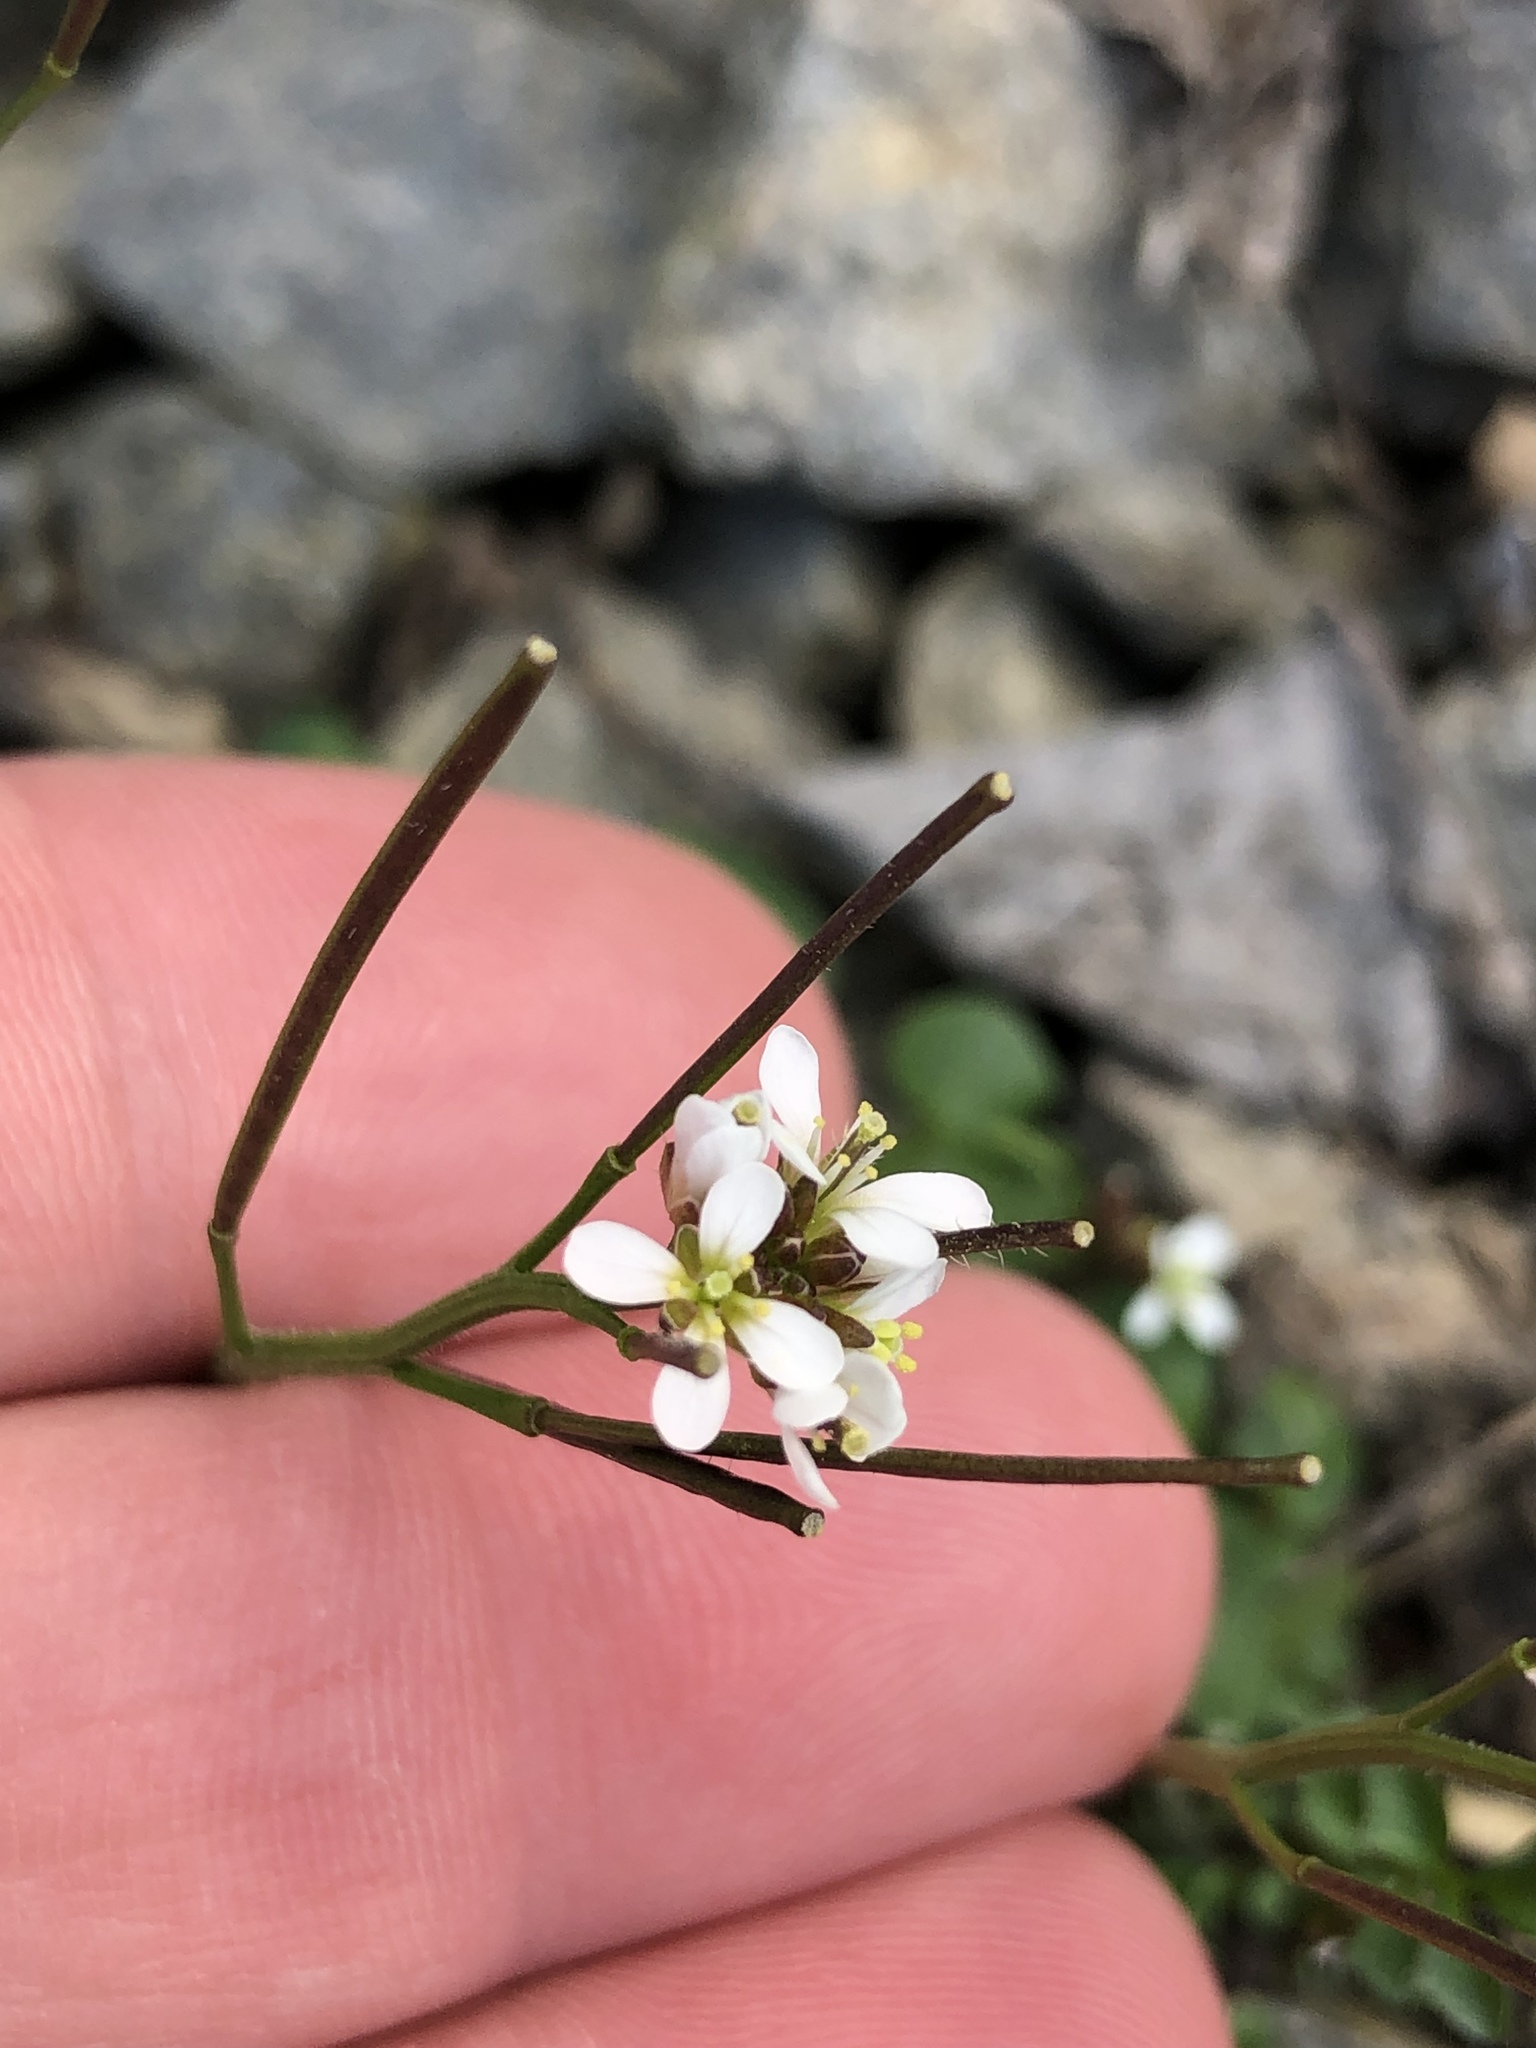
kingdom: Plantae
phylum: Tracheophyta
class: Magnoliopsida
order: Brassicales
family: Brassicaceae
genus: Cardamine
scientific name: Cardamine hirsuta
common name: Hairy bittercress
